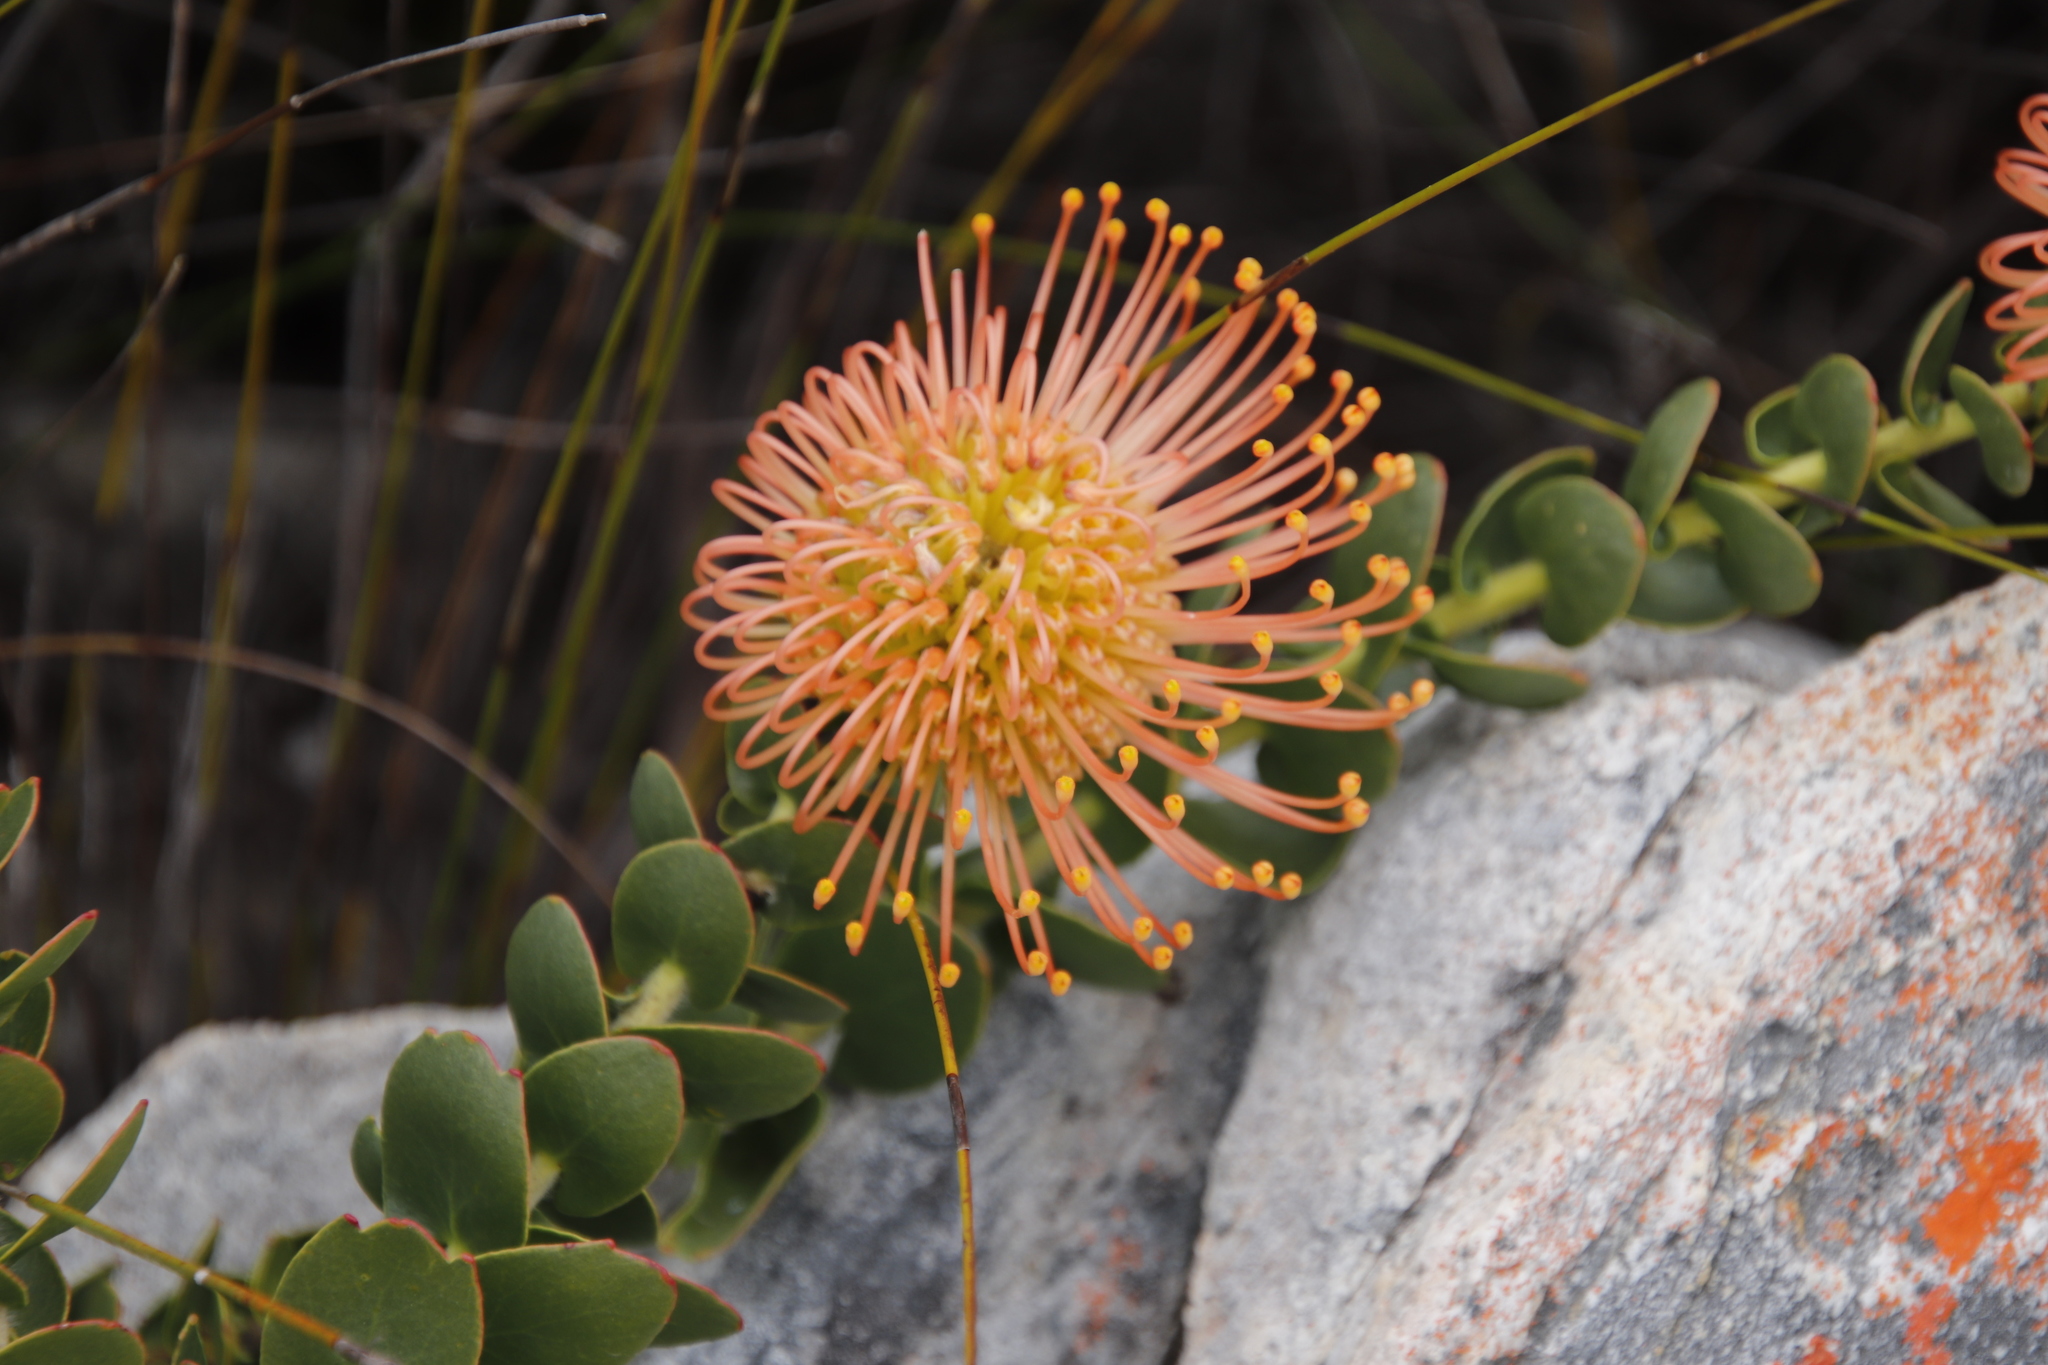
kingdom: Plantae
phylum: Tracheophyta
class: Magnoliopsida
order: Proteales
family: Proteaceae
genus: Leucospermum
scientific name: Leucospermum cordifolium
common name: Red pincushion-protea
